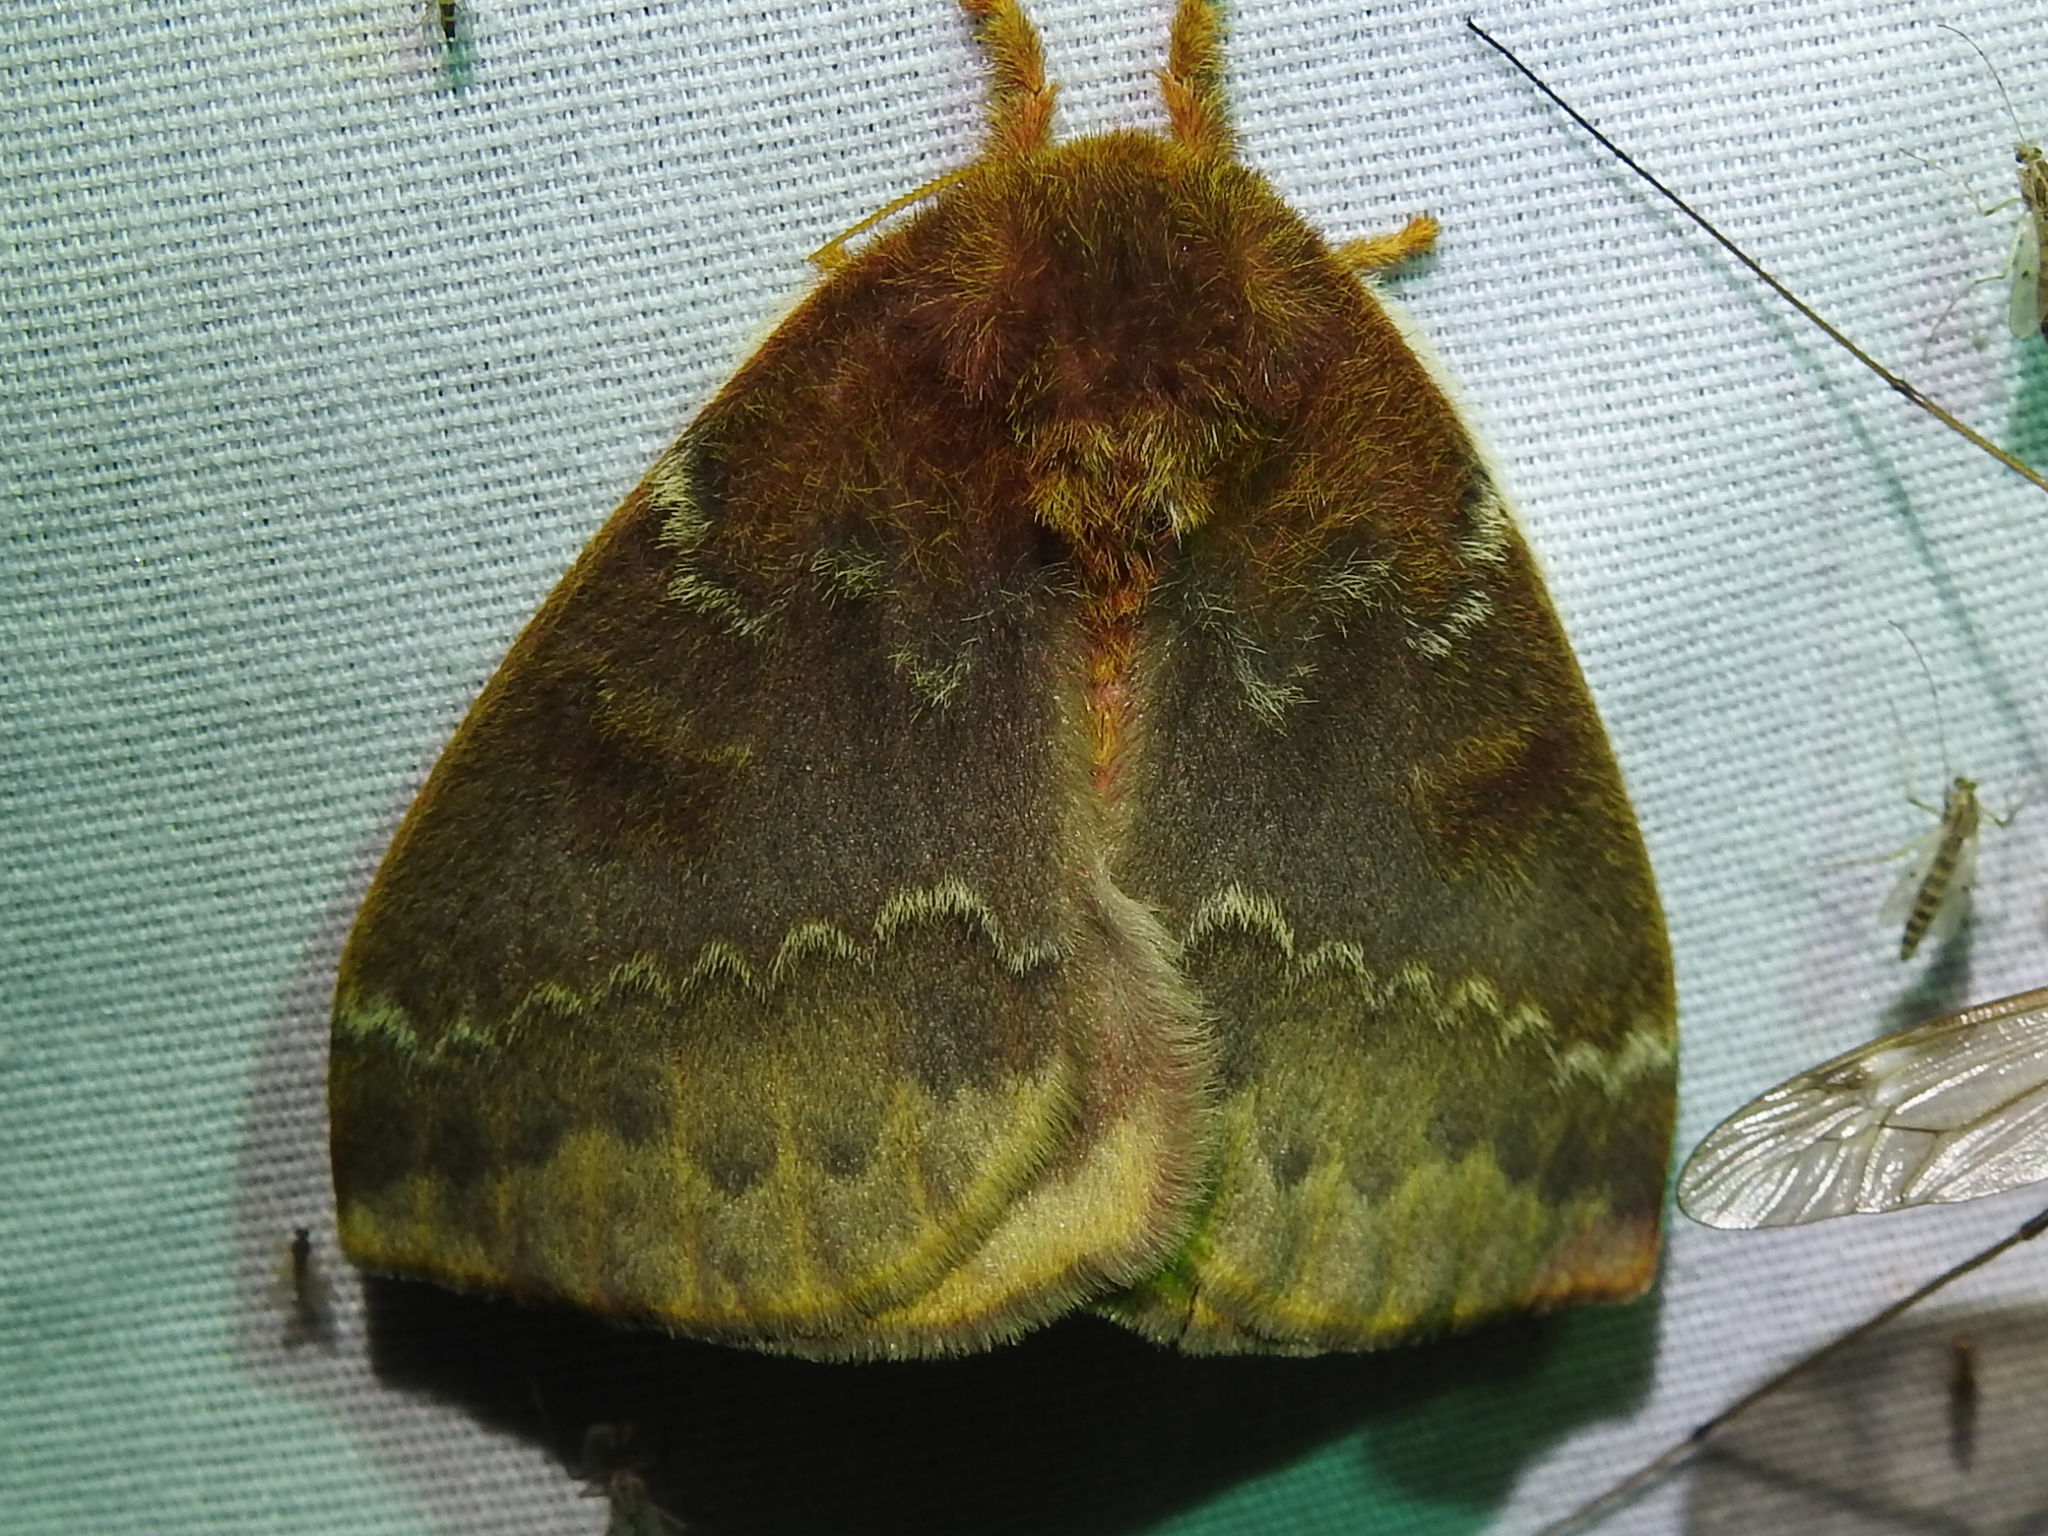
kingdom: Animalia
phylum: Arthropoda
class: Insecta
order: Lepidoptera
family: Saturniidae
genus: Automeris
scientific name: Automeris io
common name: Io moth
